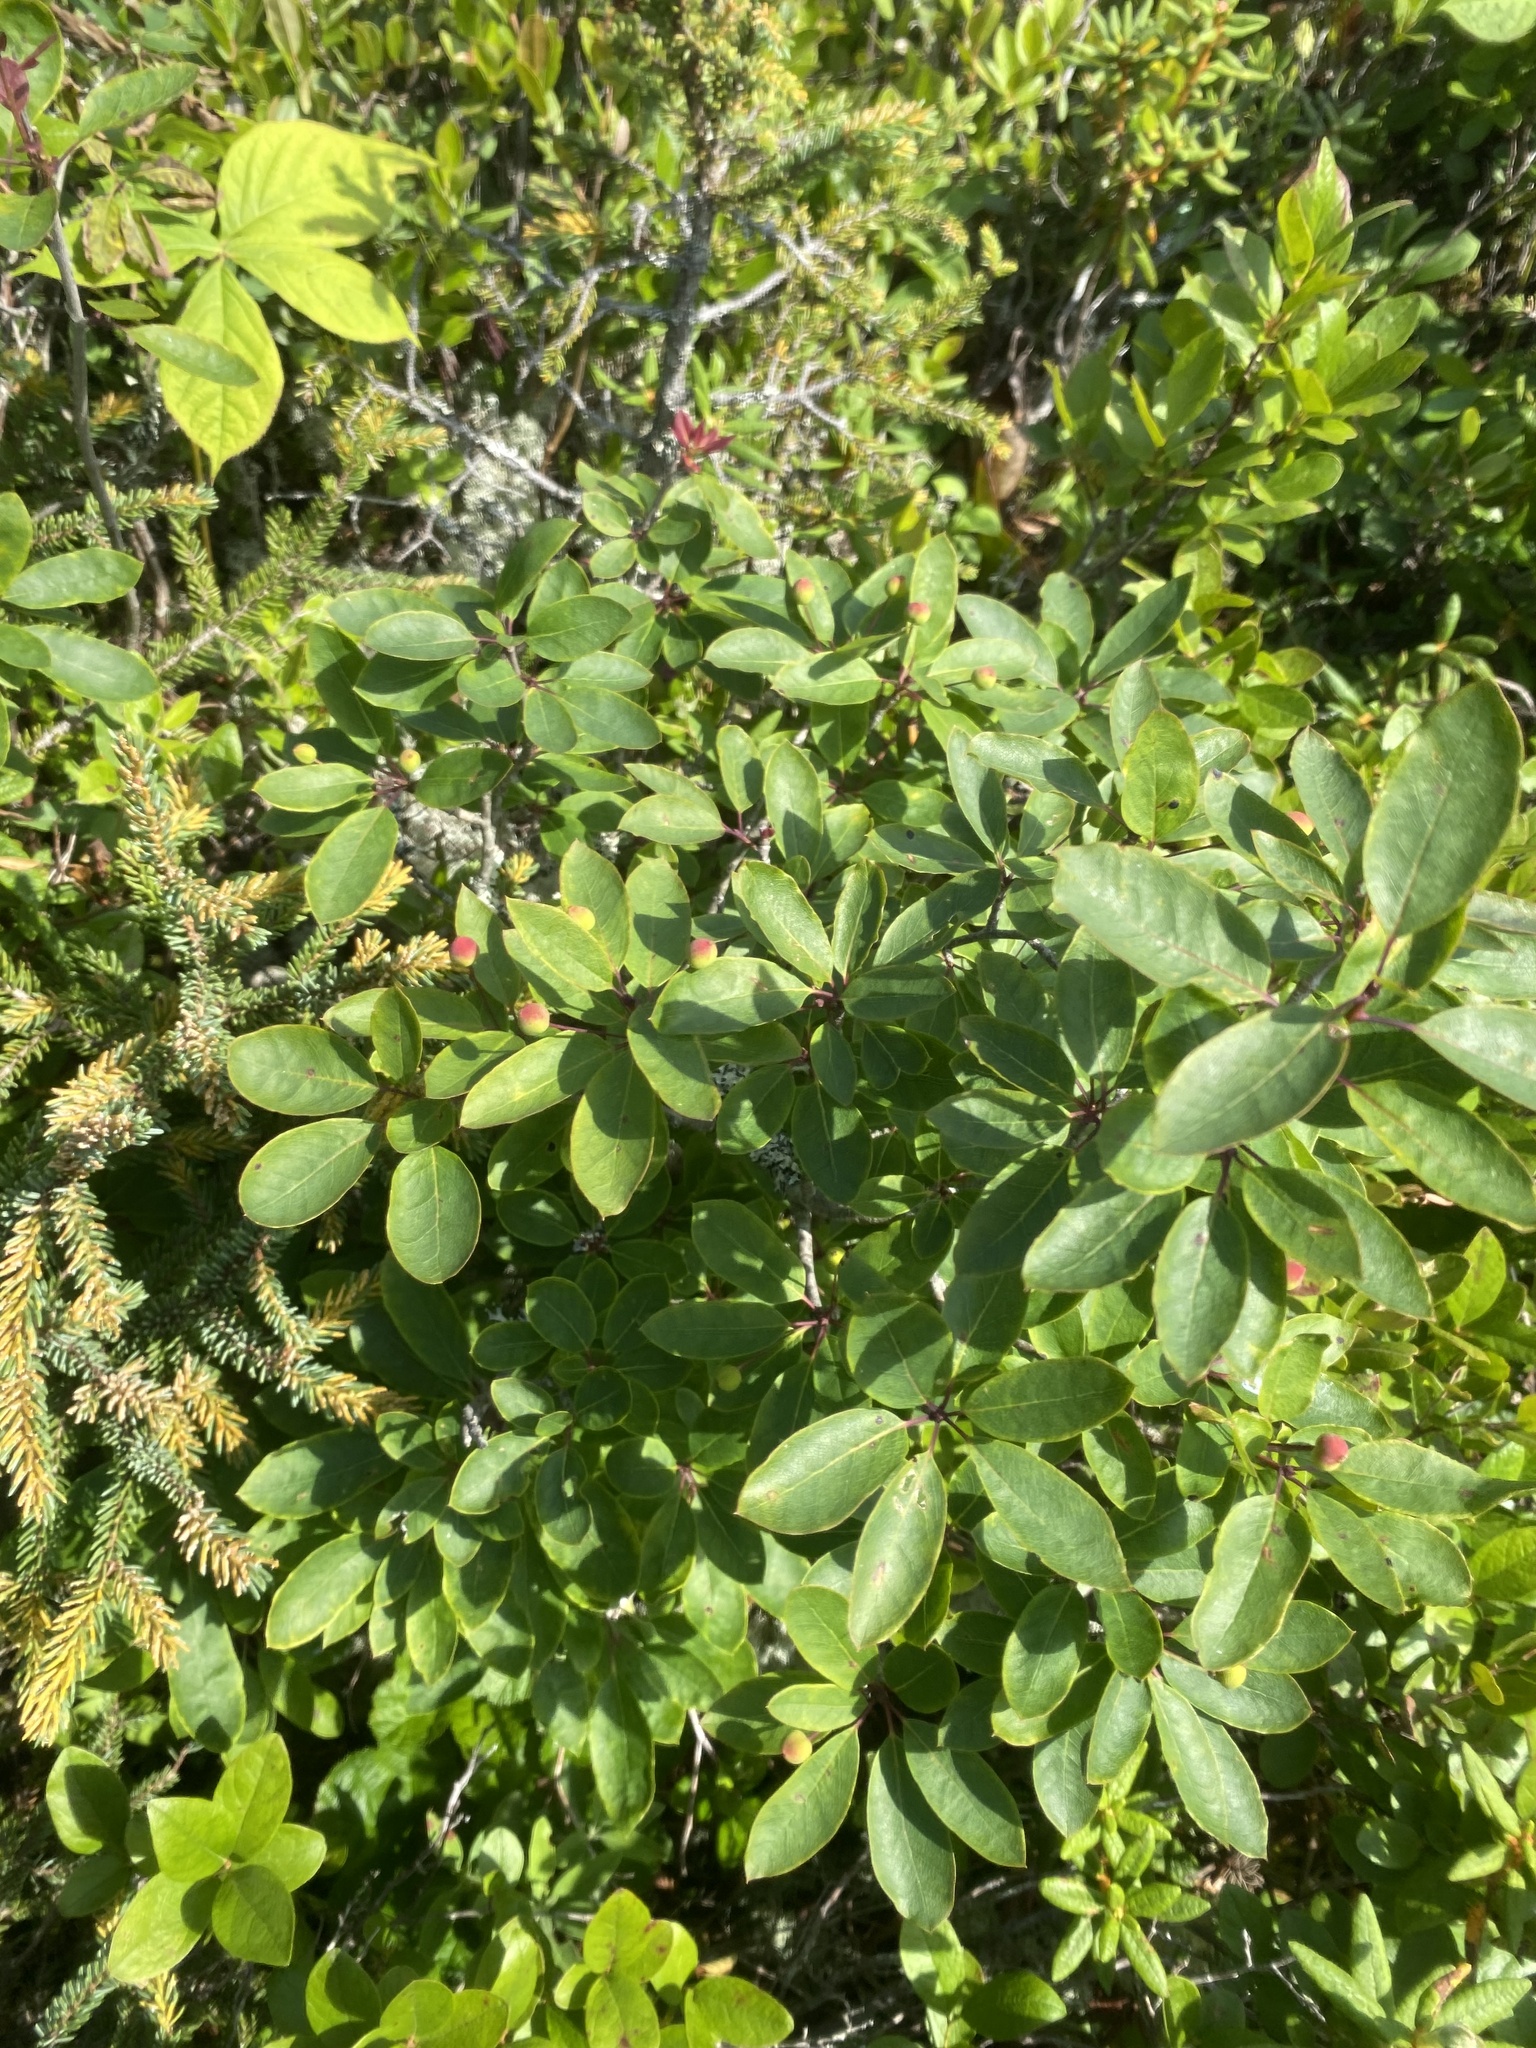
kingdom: Plantae
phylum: Tracheophyta
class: Magnoliopsida
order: Aquifoliales
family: Aquifoliaceae
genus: Ilex
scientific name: Ilex mucronata
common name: Catberry
